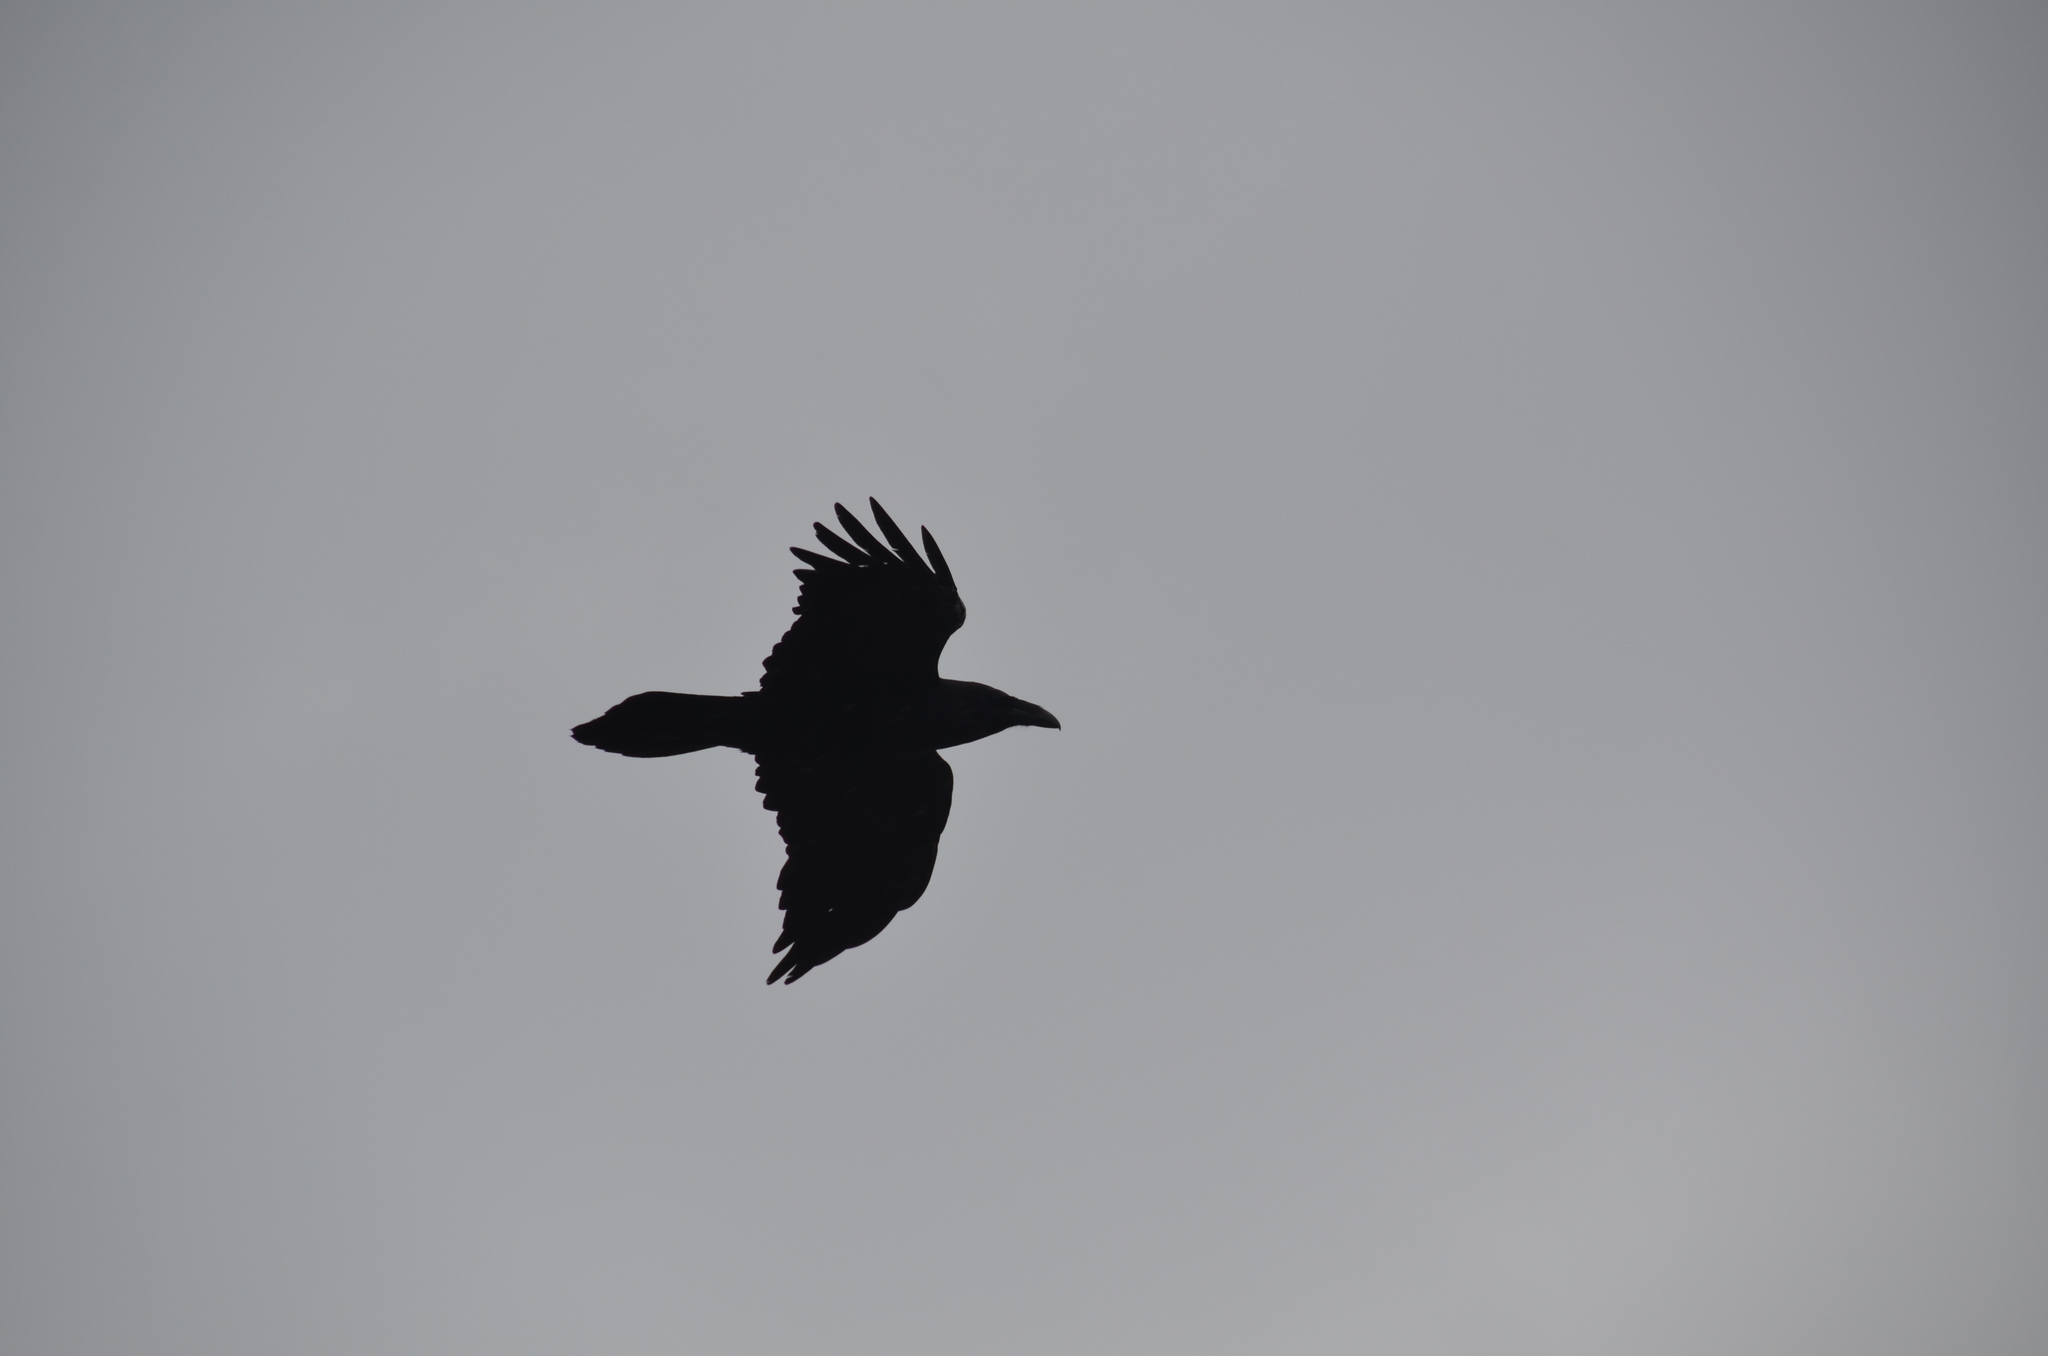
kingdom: Animalia
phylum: Chordata
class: Aves
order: Passeriformes
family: Corvidae
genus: Corvus
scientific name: Corvus corax
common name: Common raven
